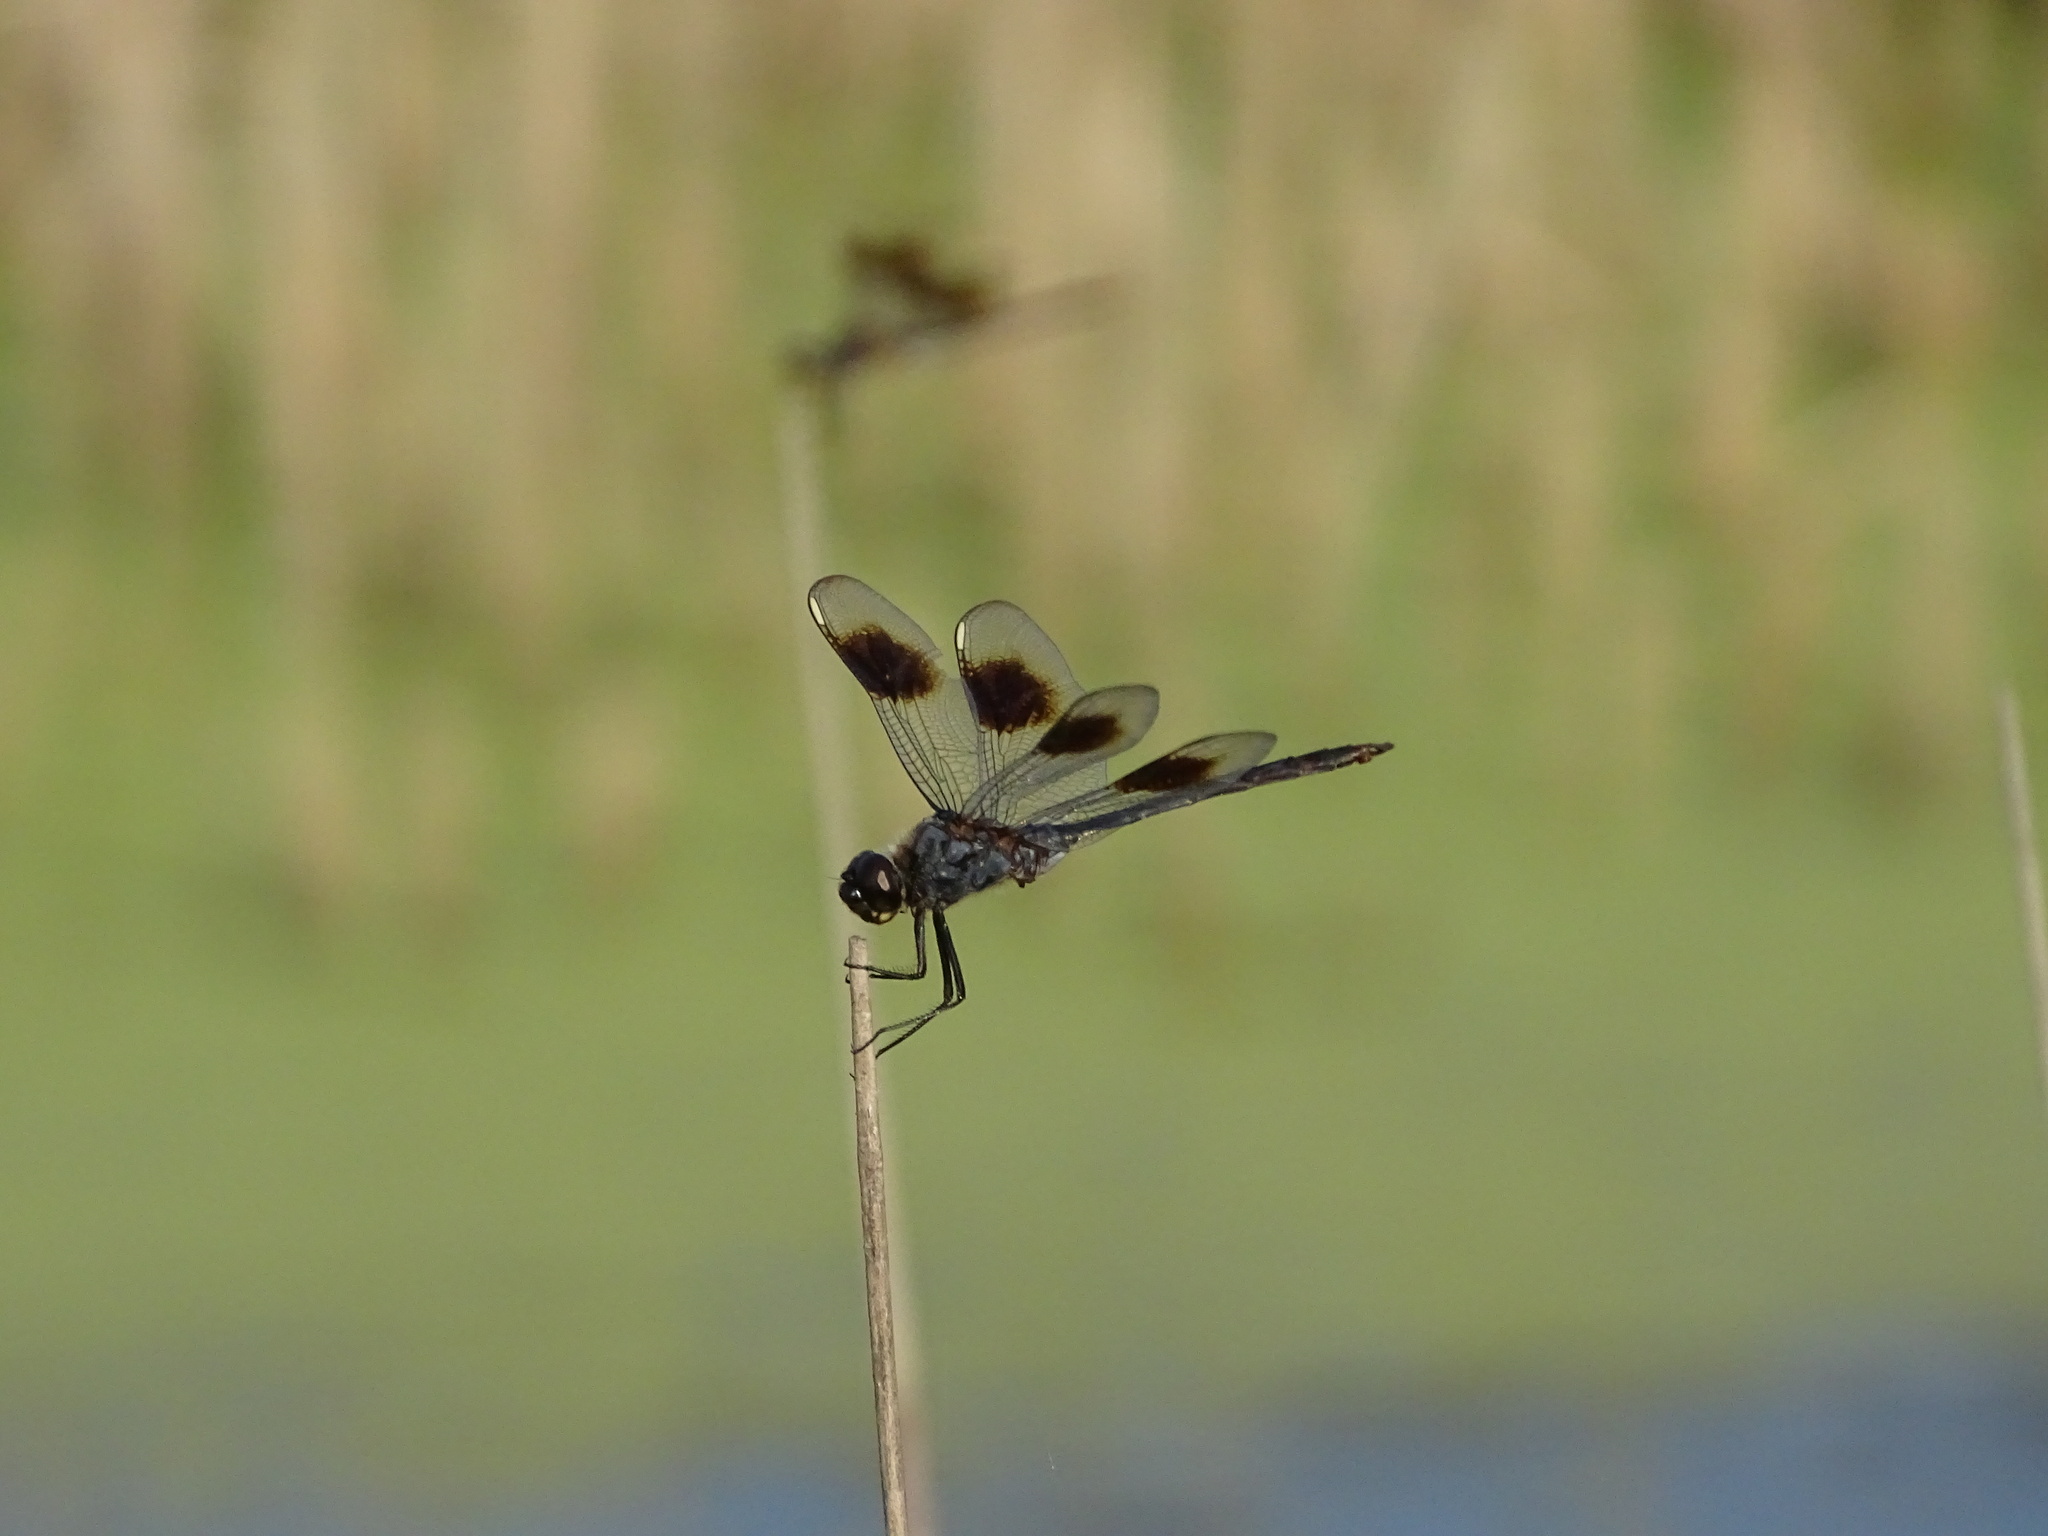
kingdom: Animalia
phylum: Arthropoda
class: Insecta
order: Odonata
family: Libellulidae
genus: Brachymesia
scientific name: Brachymesia gravida
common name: Four-spotted pennant
